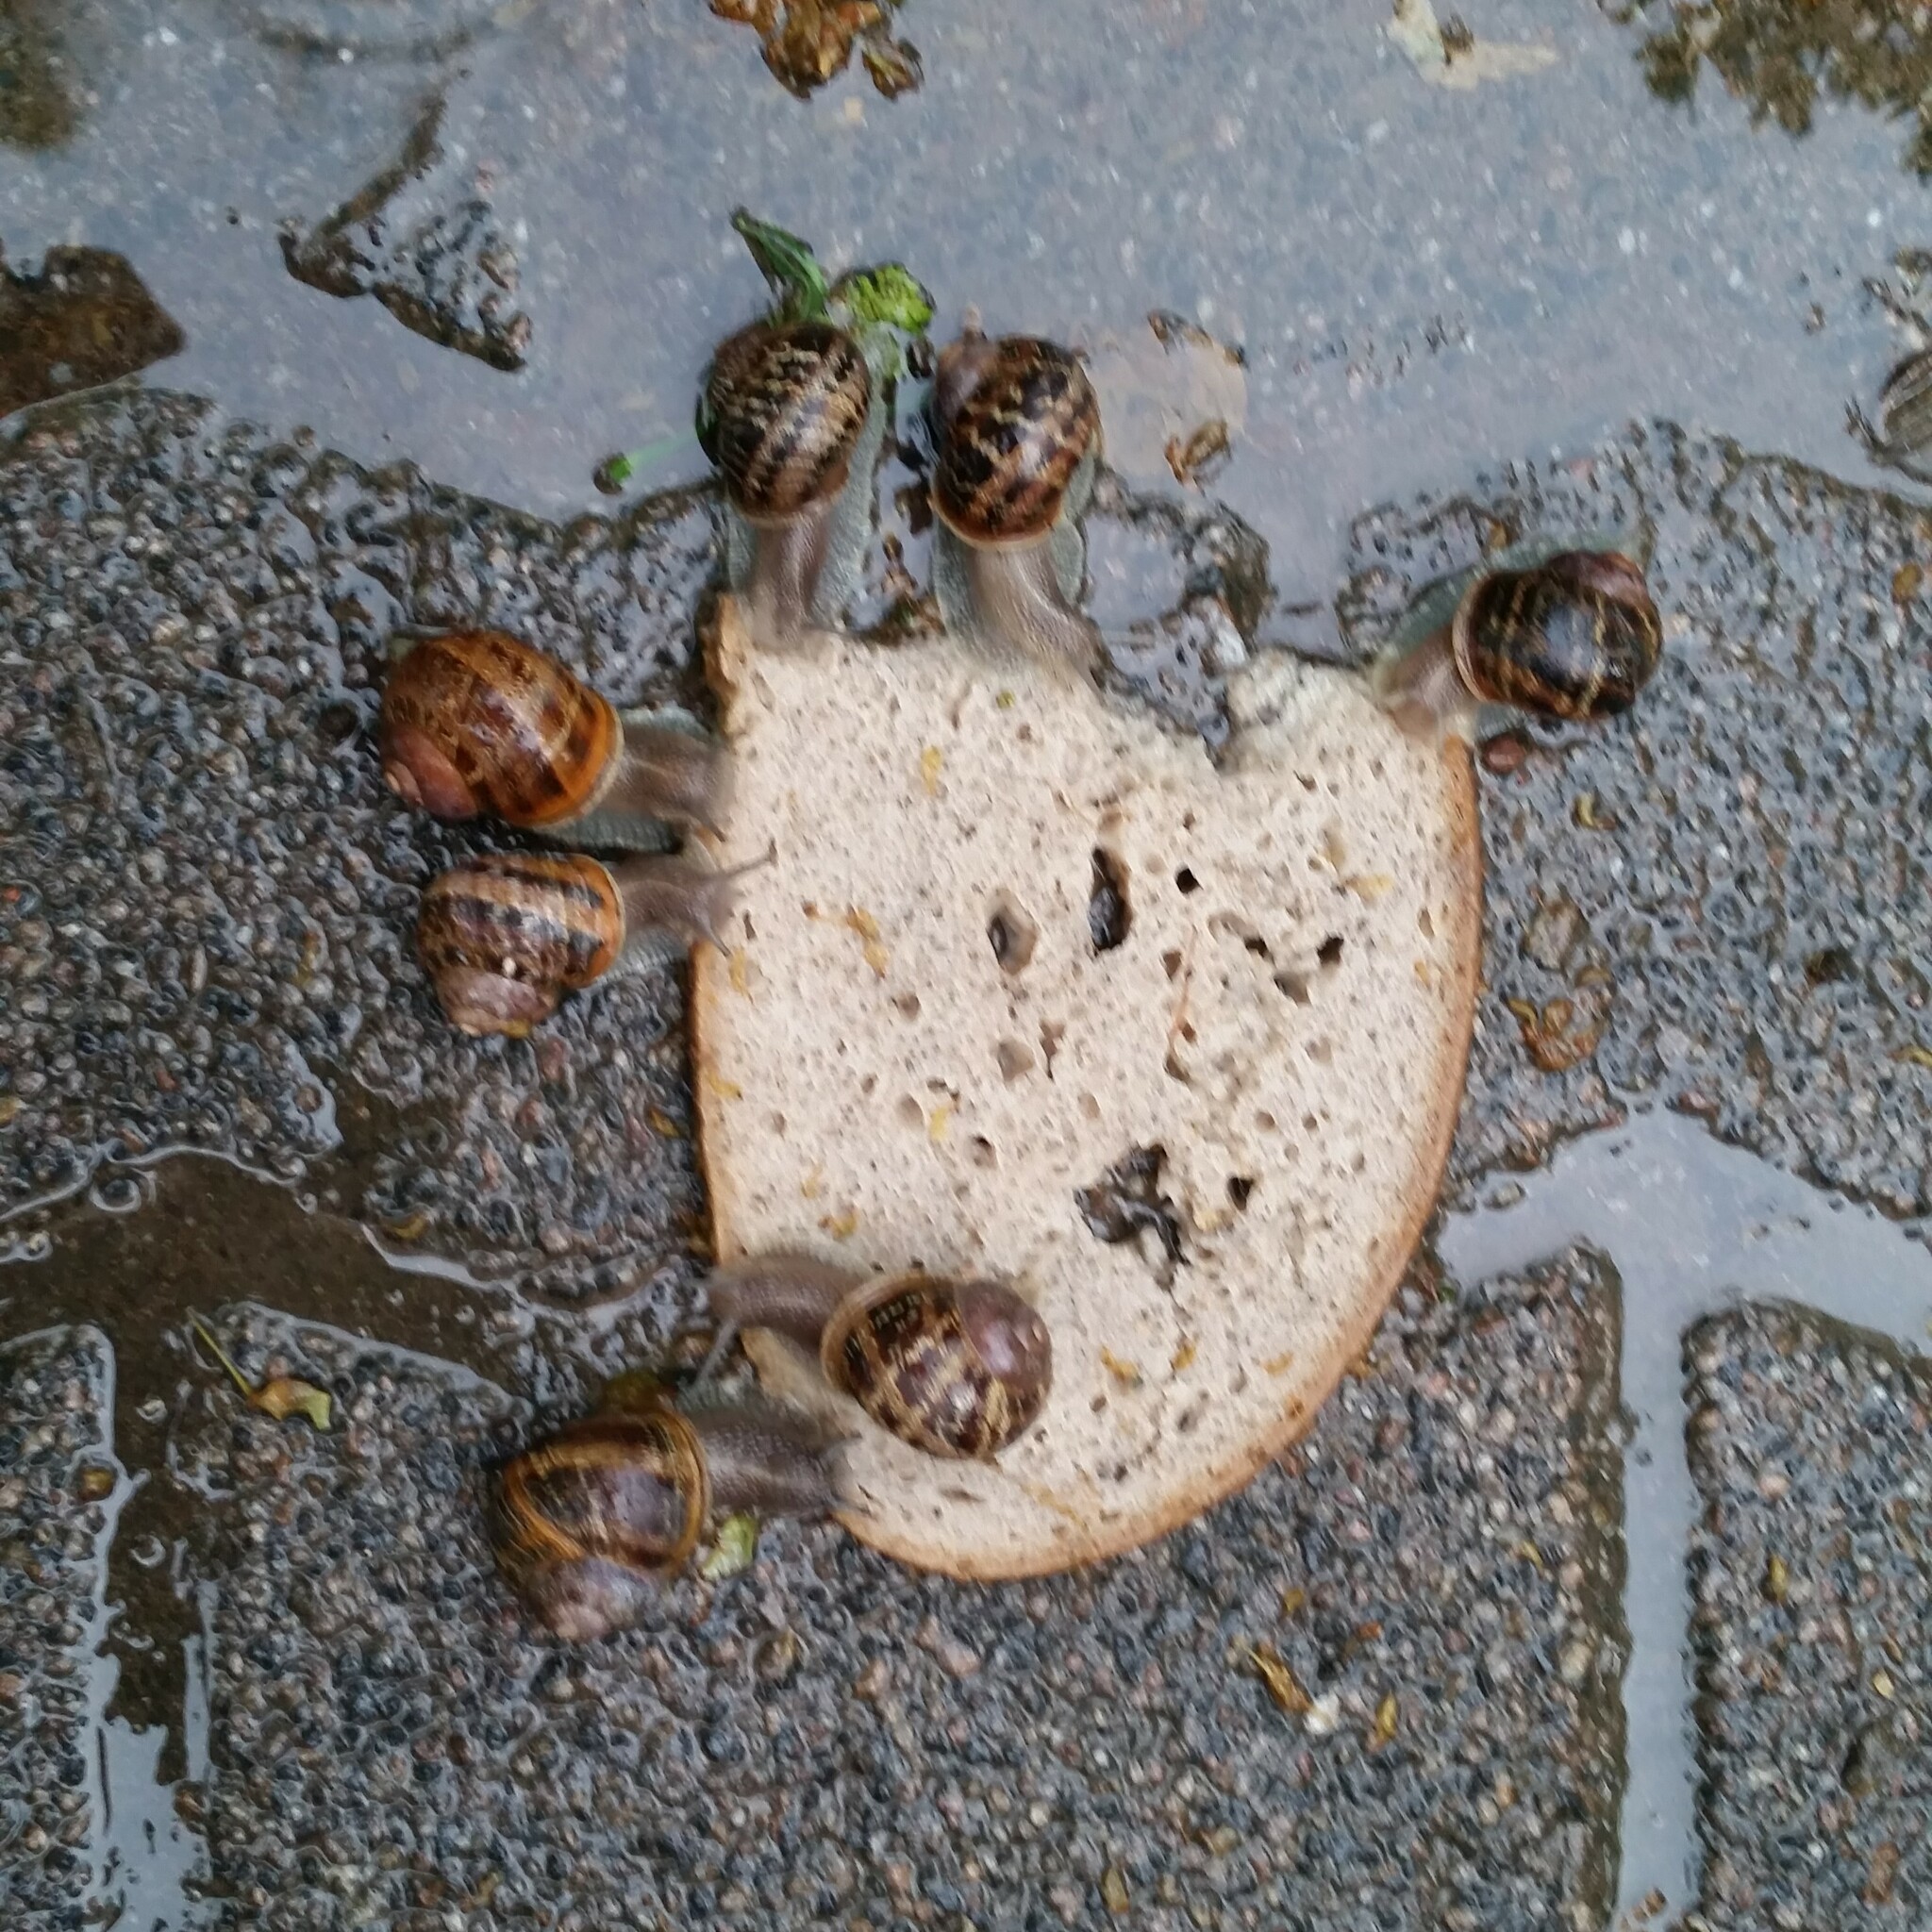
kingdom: Animalia
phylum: Mollusca
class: Gastropoda
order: Stylommatophora
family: Helicidae
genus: Cornu
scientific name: Cornu aspersum
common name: Brown garden snail
